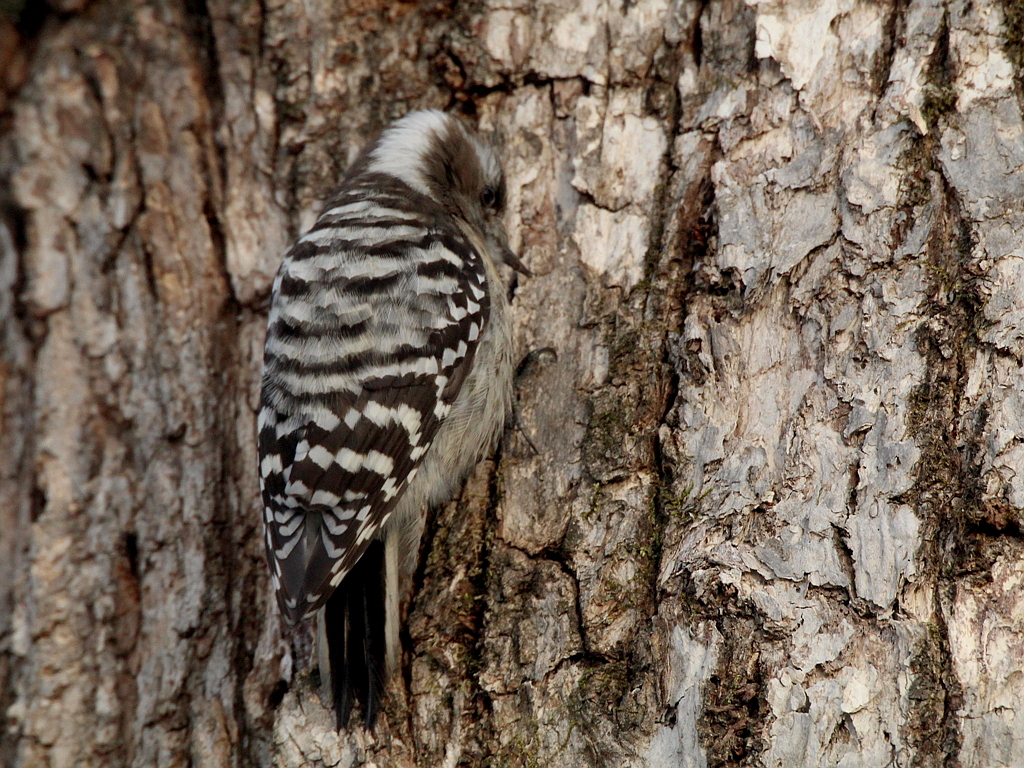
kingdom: Animalia
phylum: Chordata
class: Aves
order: Piciformes
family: Picidae
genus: Yungipicus
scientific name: Yungipicus kizuki
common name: Japanese pygmy woodpecker
